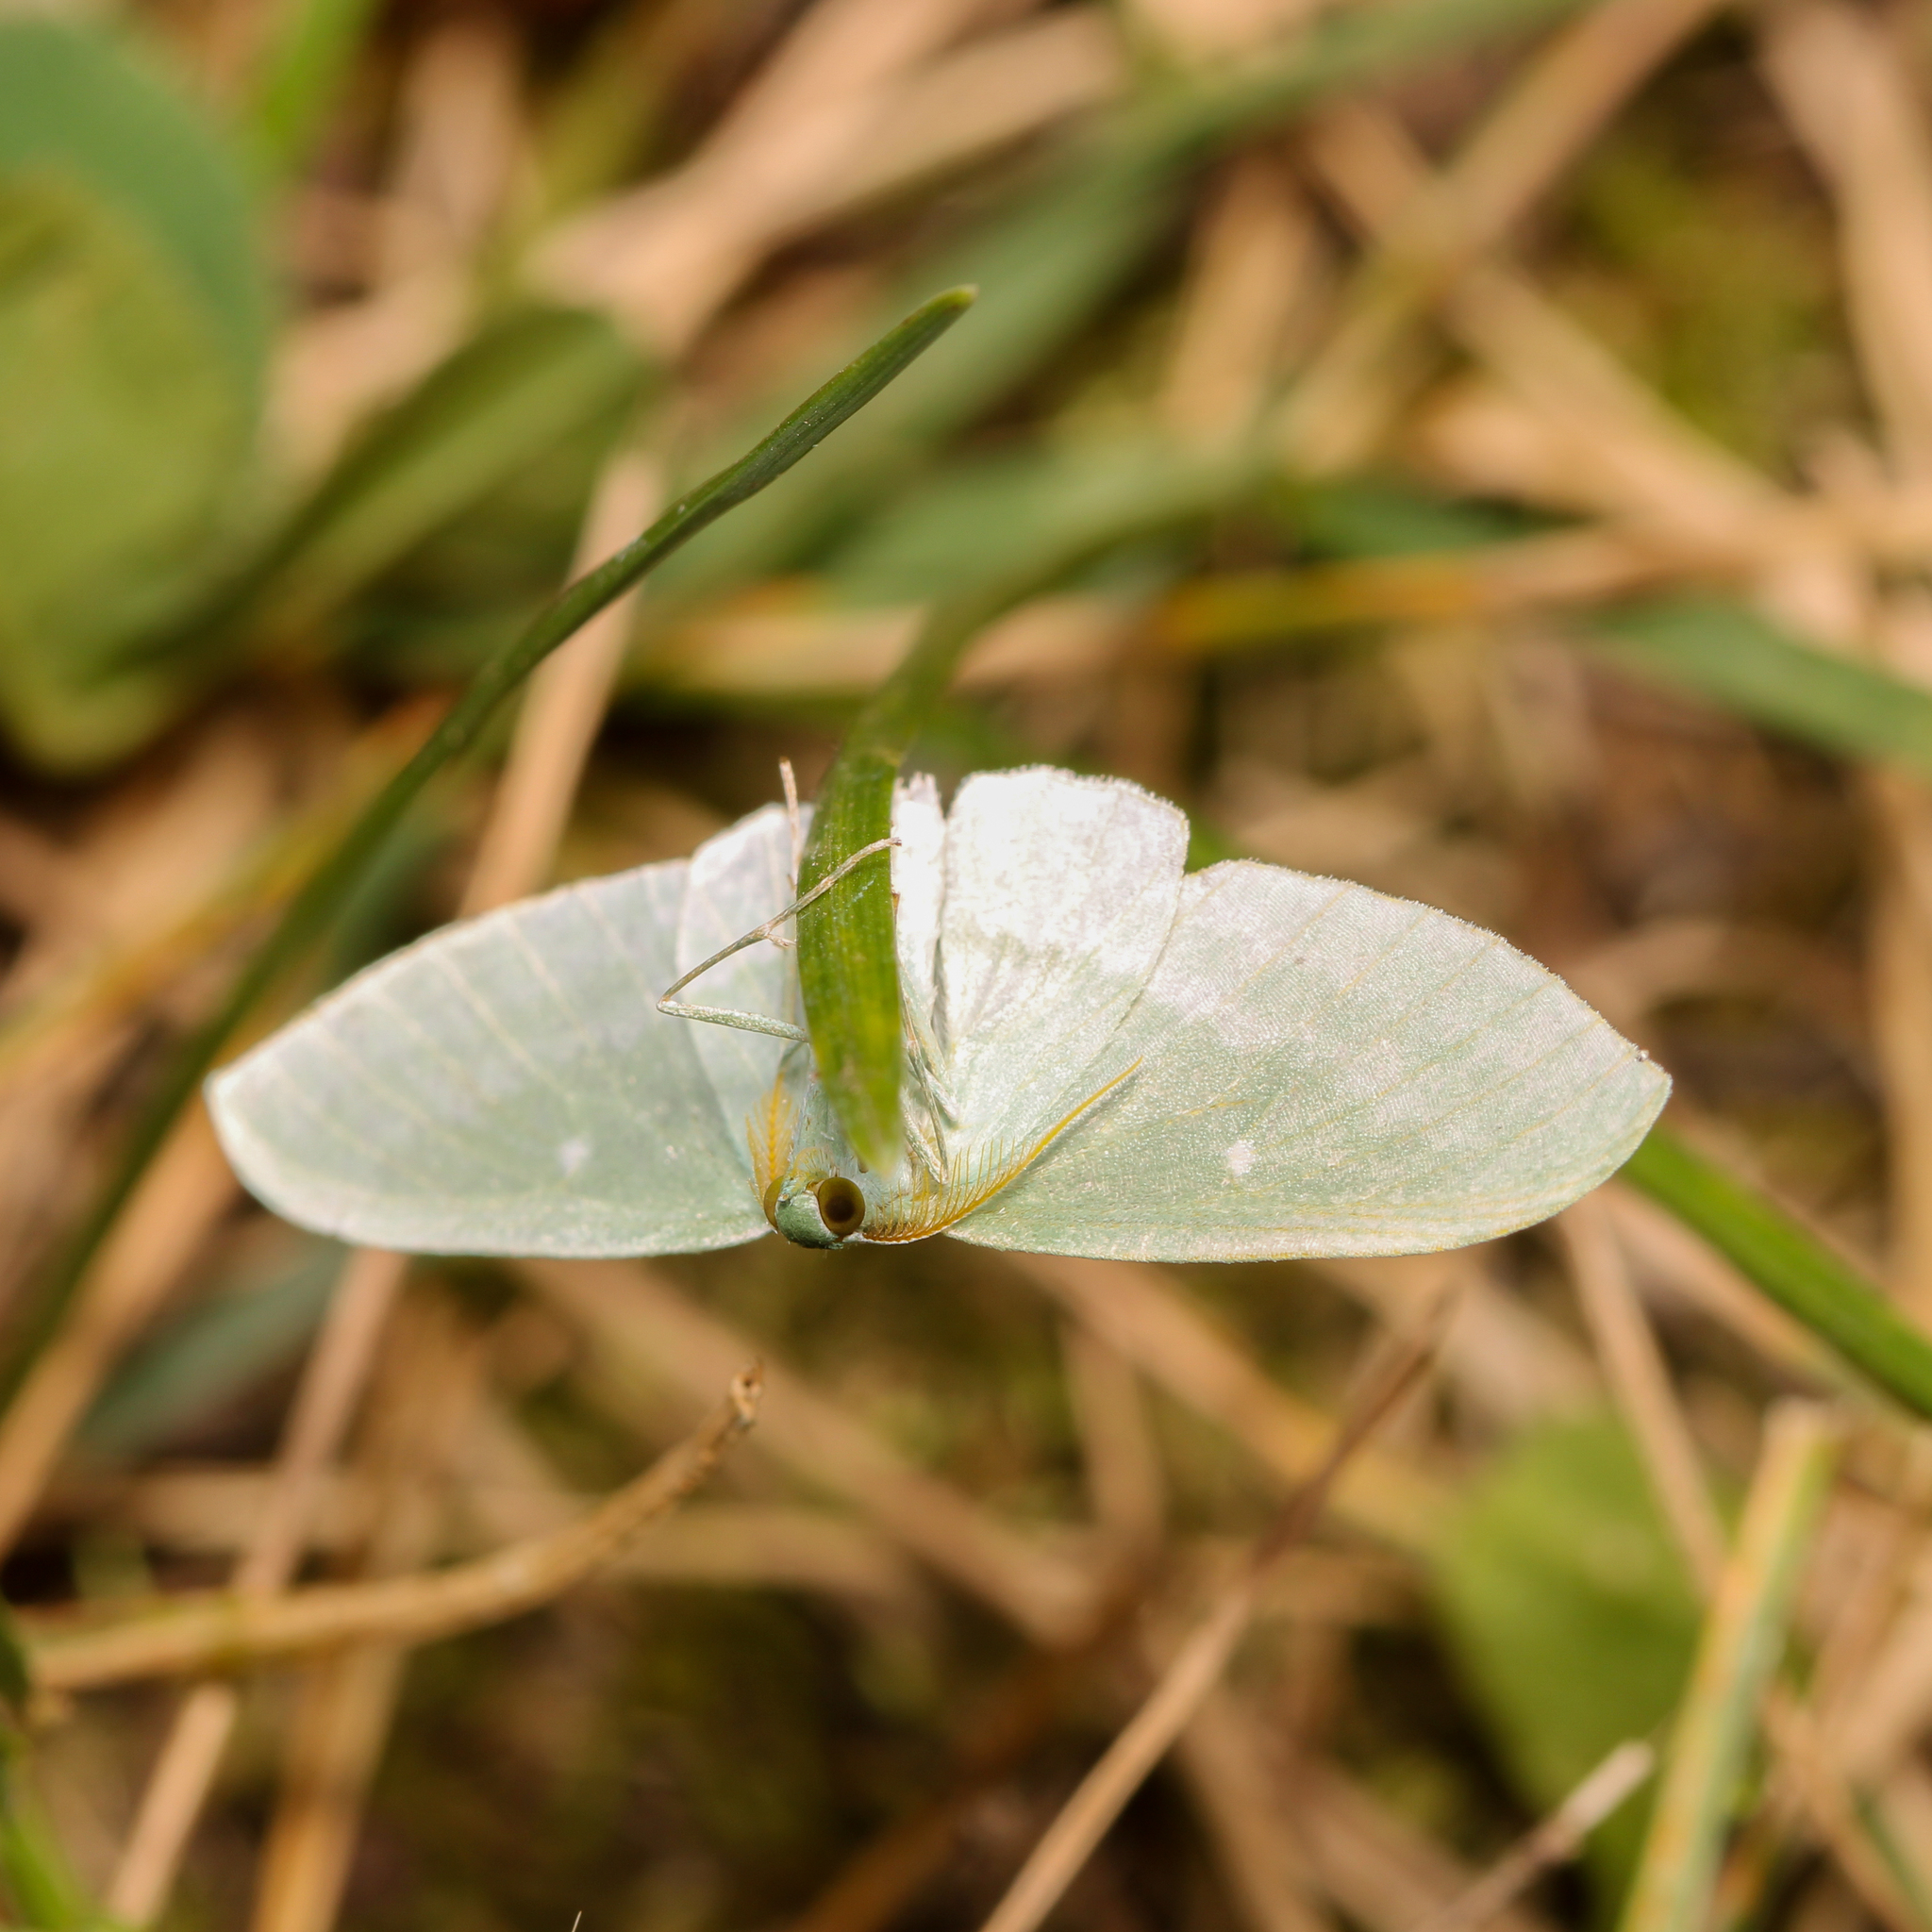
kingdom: Animalia
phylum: Arthropoda
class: Insecta
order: Lepidoptera
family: Geometridae
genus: Dyspteris
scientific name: Dyspteris abortivaria
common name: Bad-wing
